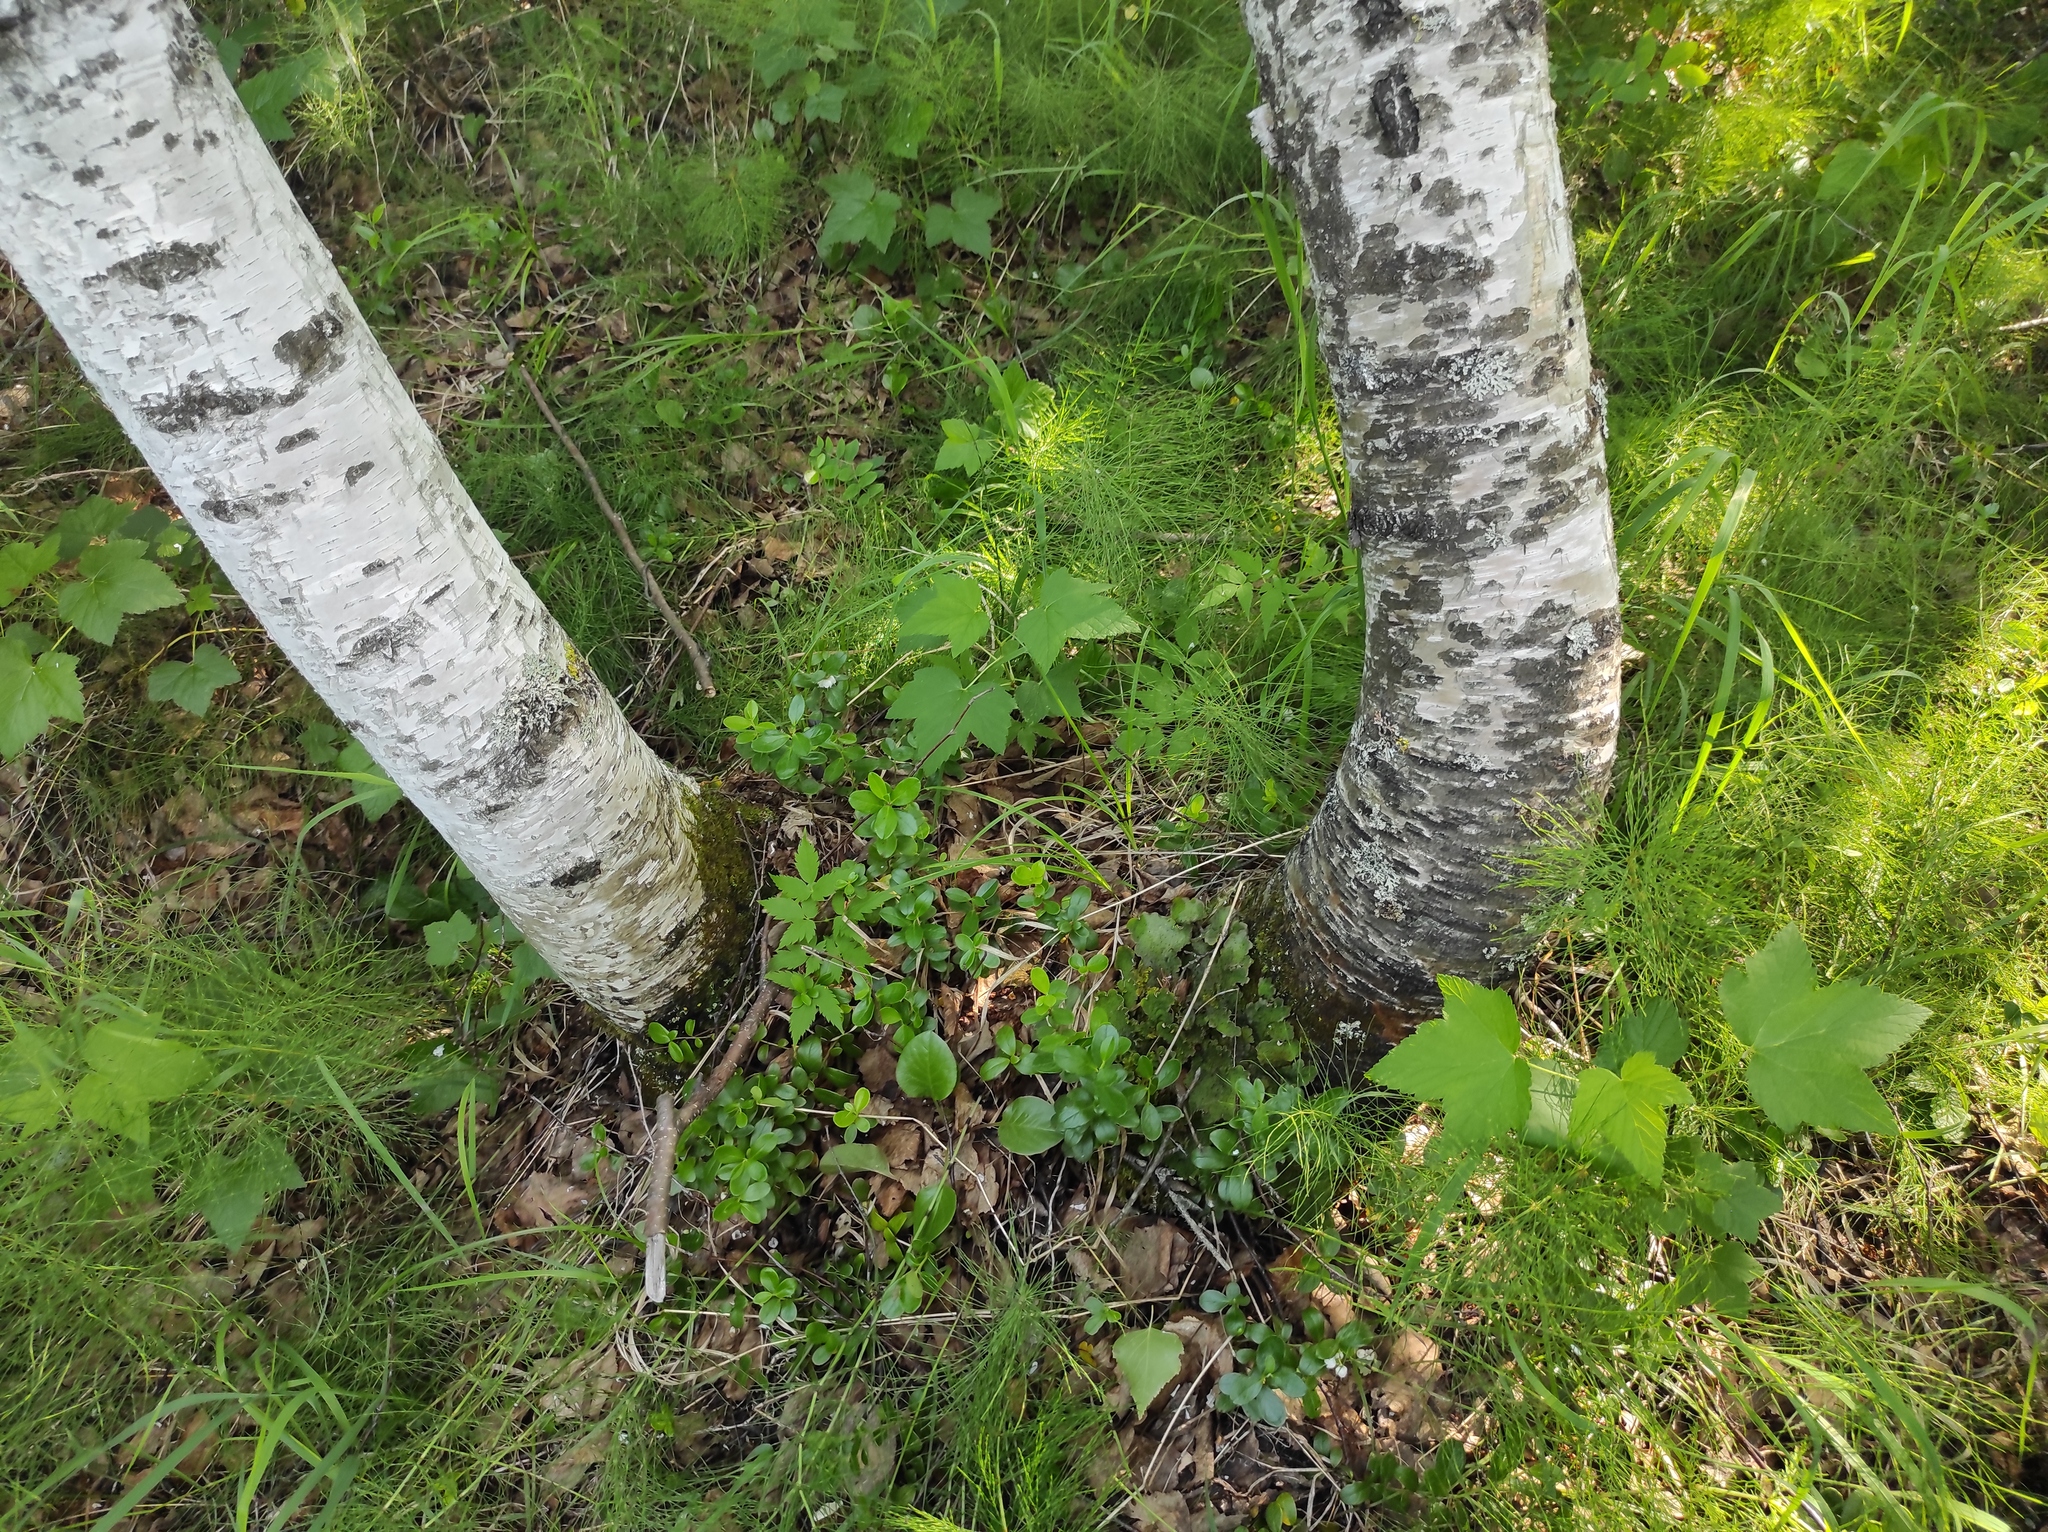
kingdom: Plantae
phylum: Tracheophyta
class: Polypodiopsida
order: Equisetales
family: Equisetaceae
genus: Equisetum
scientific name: Equisetum pratense
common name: Meadow horsetail
